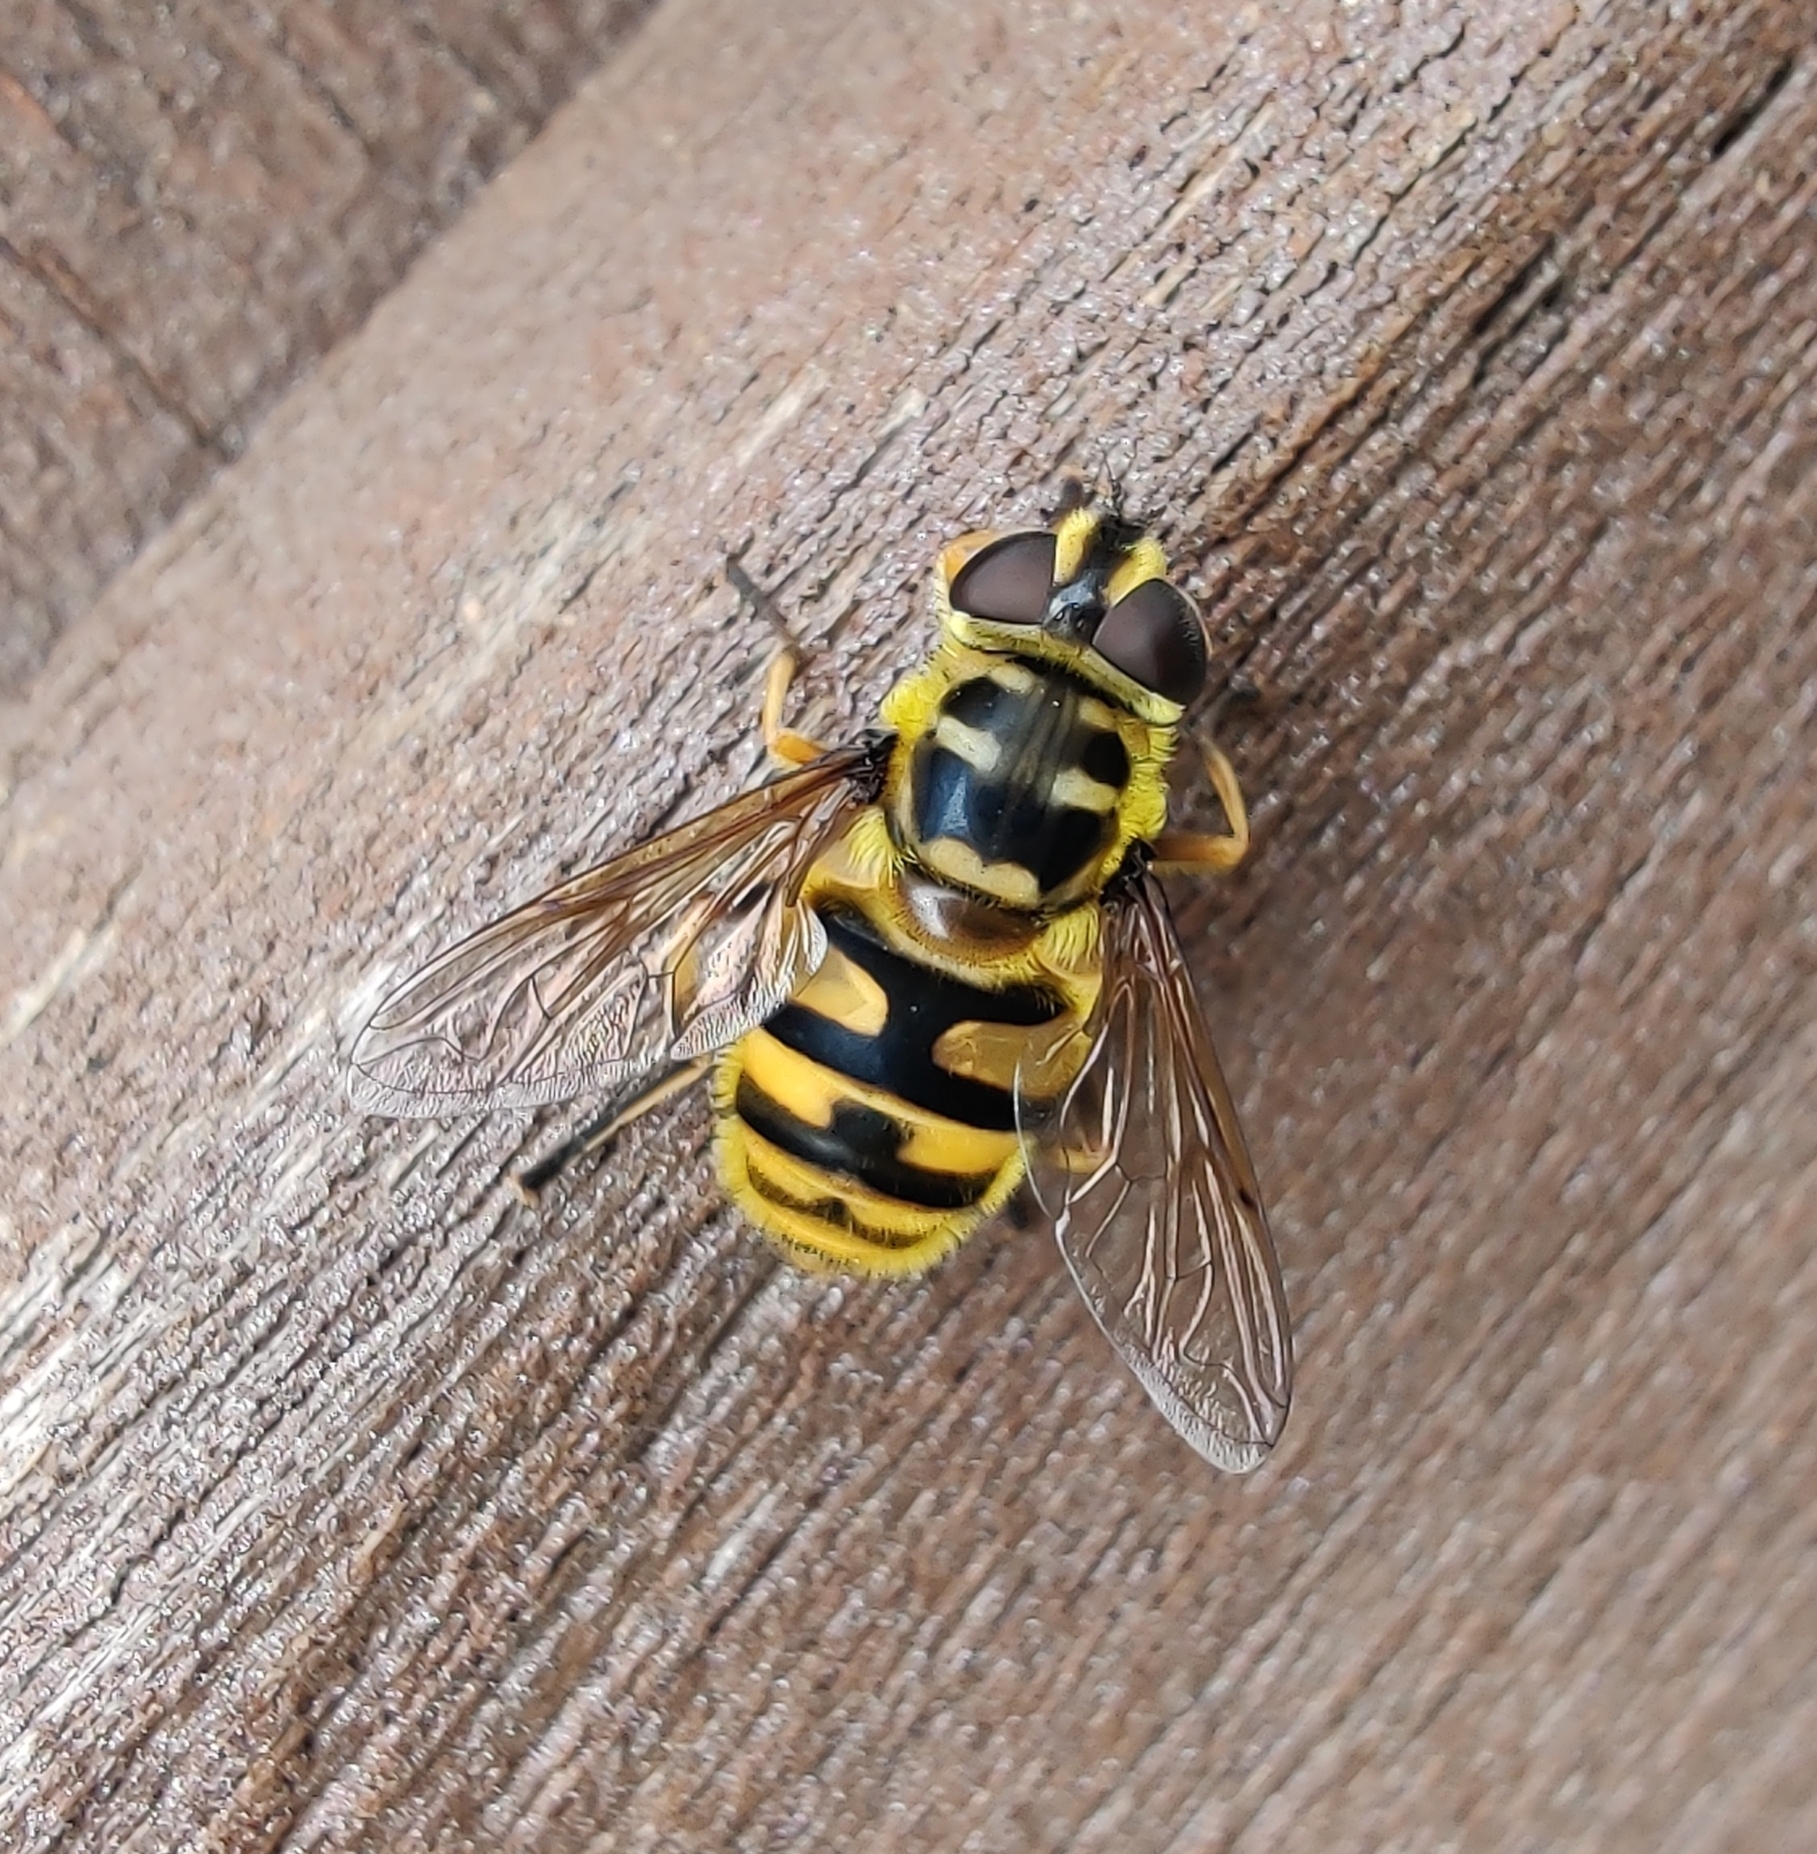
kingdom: Animalia
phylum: Arthropoda
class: Insecta
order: Diptera
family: Syrphidae
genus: Myathropa
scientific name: Myathropa florea
